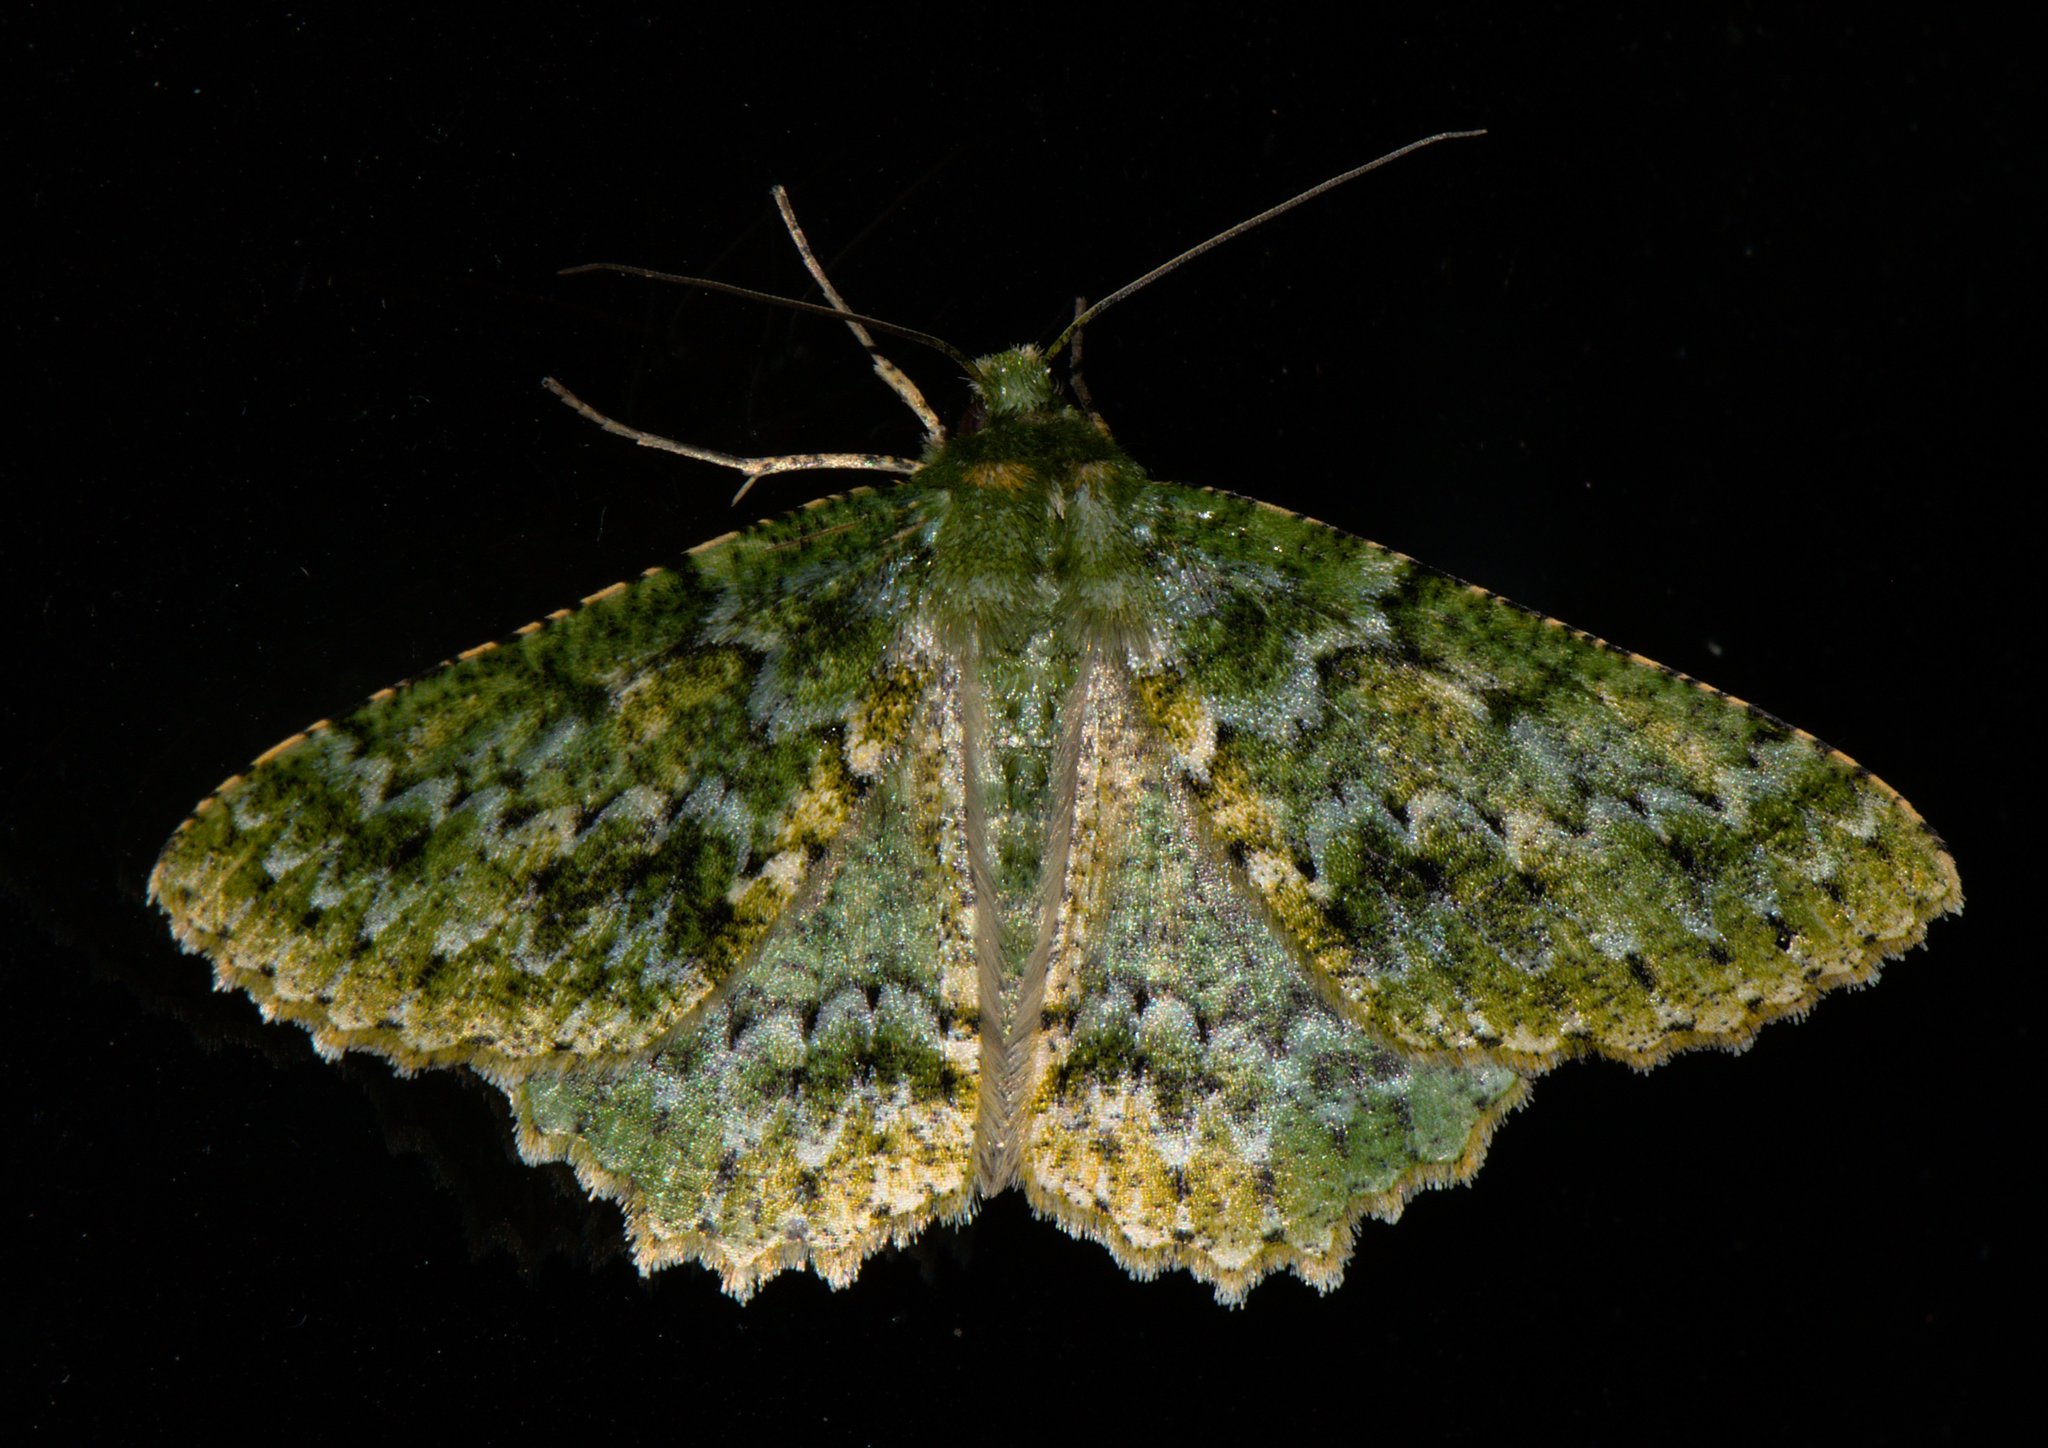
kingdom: Animalia
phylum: Arthropoda
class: Insecta
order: Lepidoptera
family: Geometridae
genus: Herochroma
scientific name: Herochroma usneata
